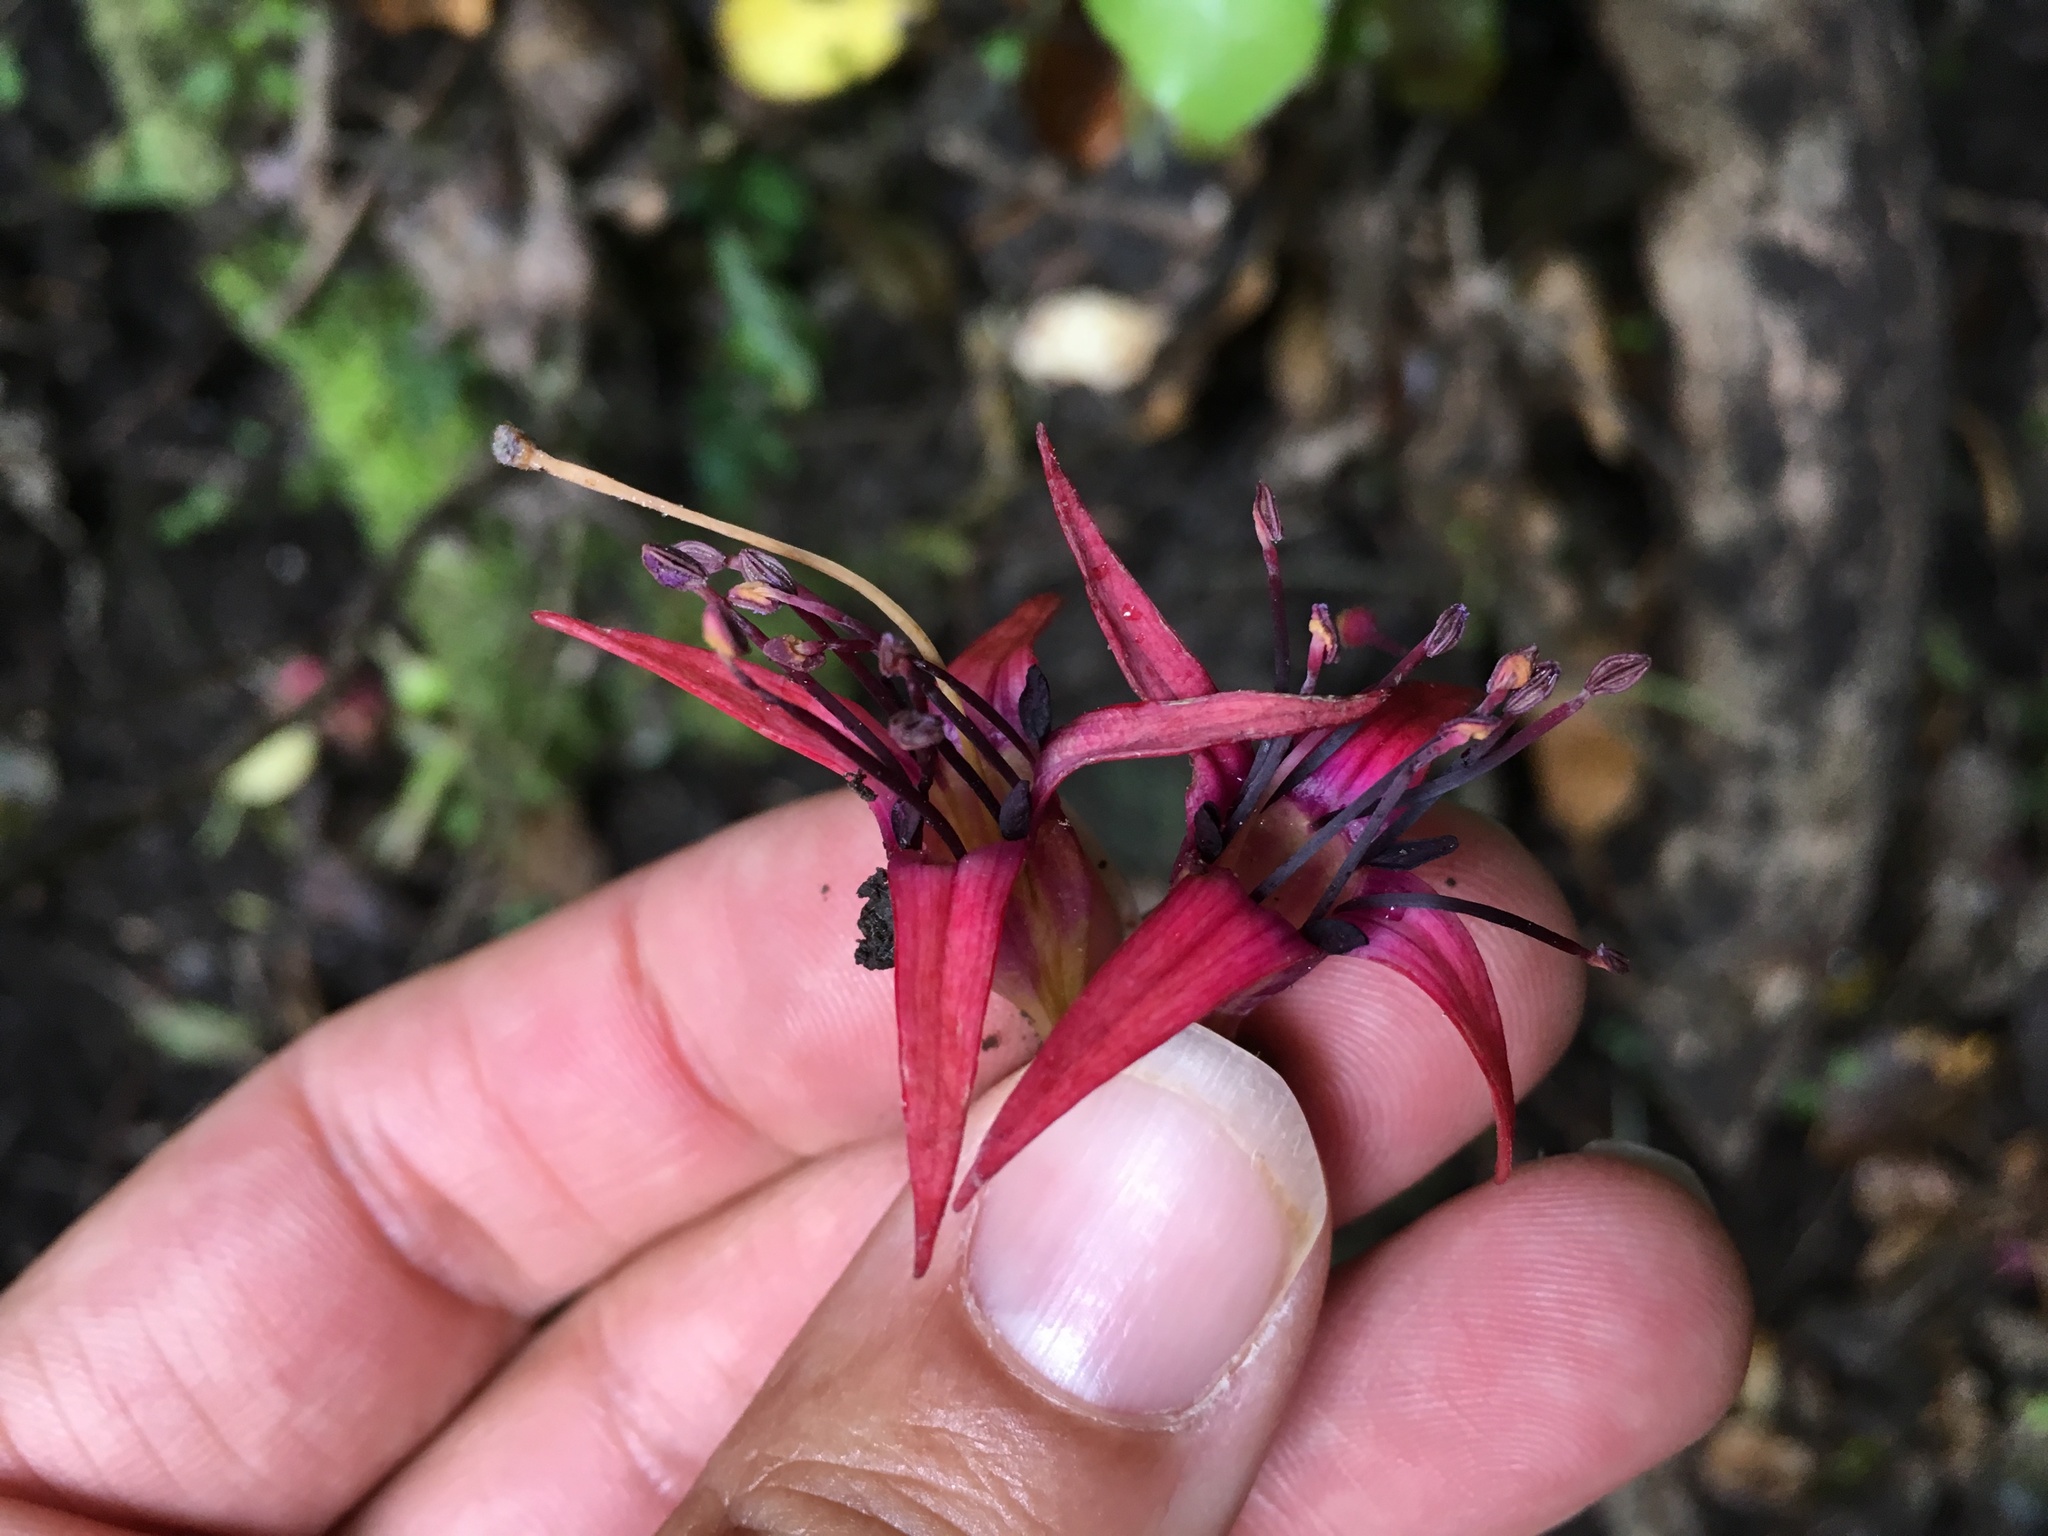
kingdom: Plantae
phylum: Tracheophyta
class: Magnoliopsida
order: Myrtales
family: Onagraceae
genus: Fuchsia
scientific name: Fuchsia excorticata
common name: Tree fuchsia
